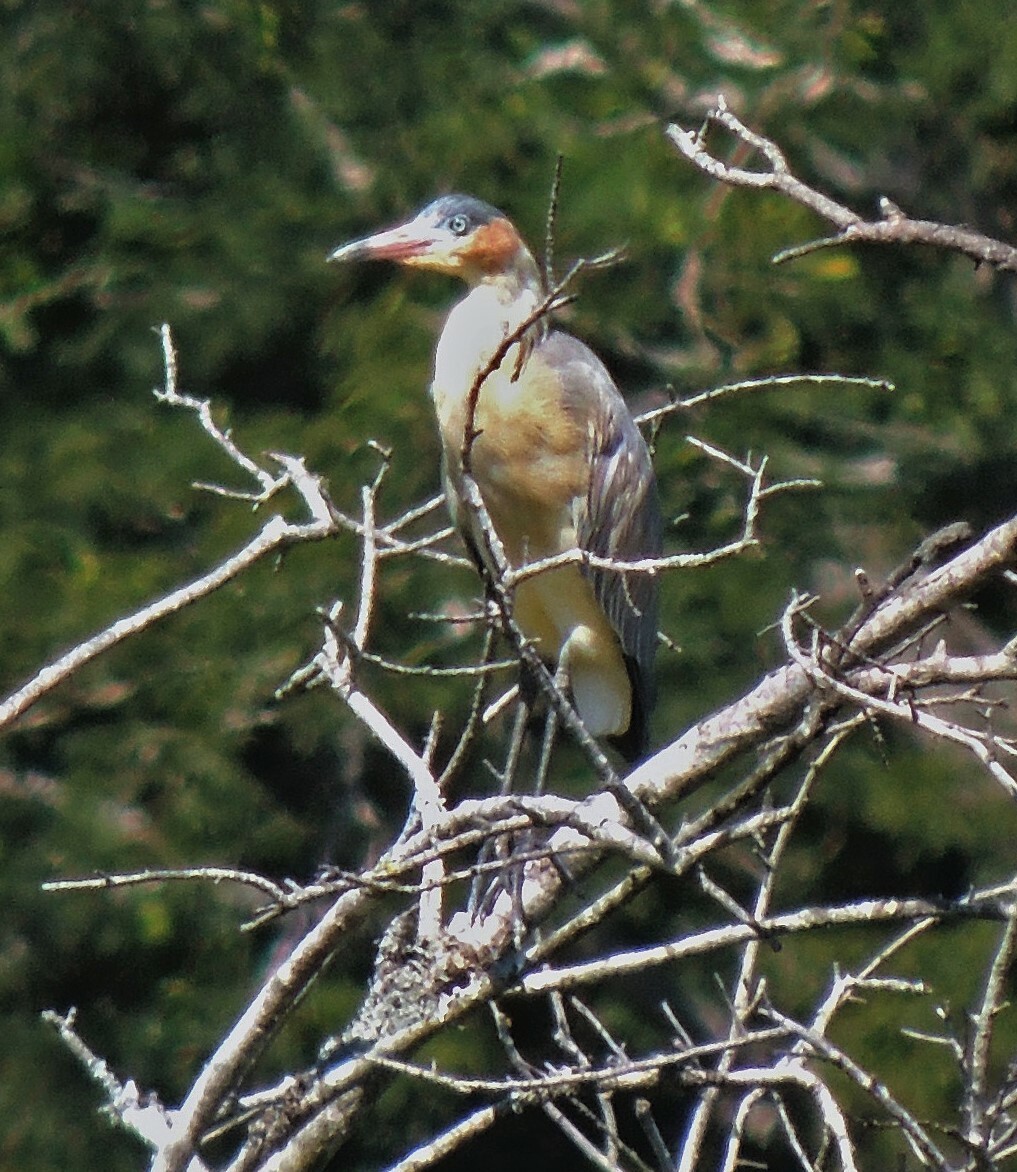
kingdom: Animalia
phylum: Chordata
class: Aves
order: Pelecaniformes
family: Ardeidae
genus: Syrigma
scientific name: Syrigma sibilatrix
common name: Whistling heron
